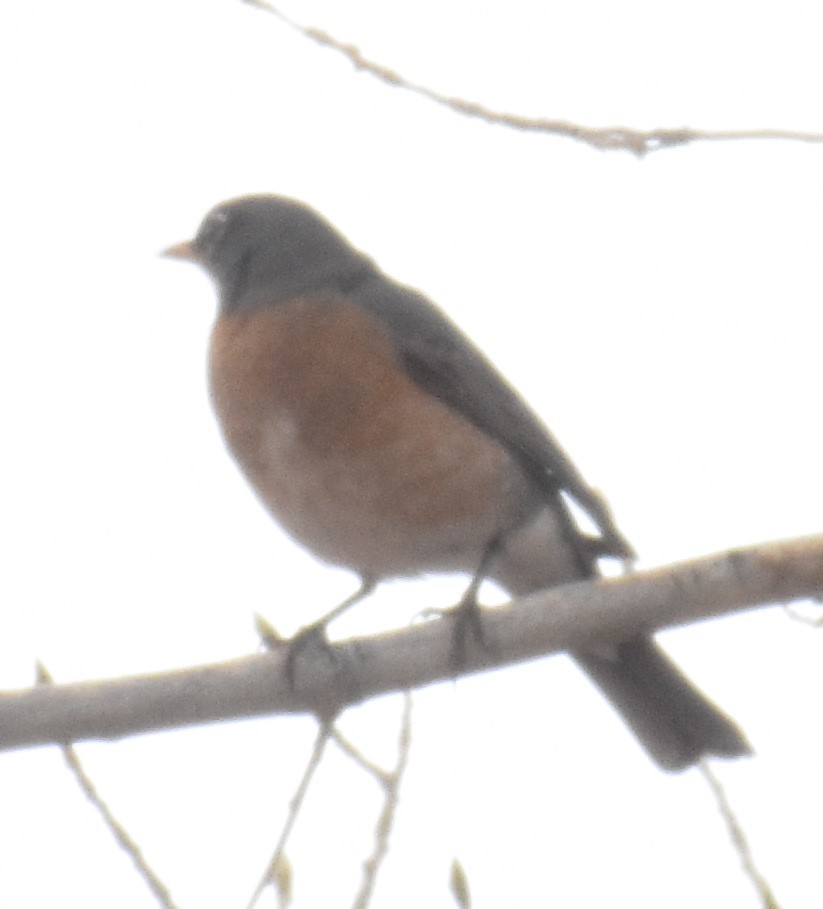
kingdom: Animalia
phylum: Chordata
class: Aves
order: Passeriformes
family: Turdidae
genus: Turdus
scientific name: Turdus migratorius
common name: American robin
